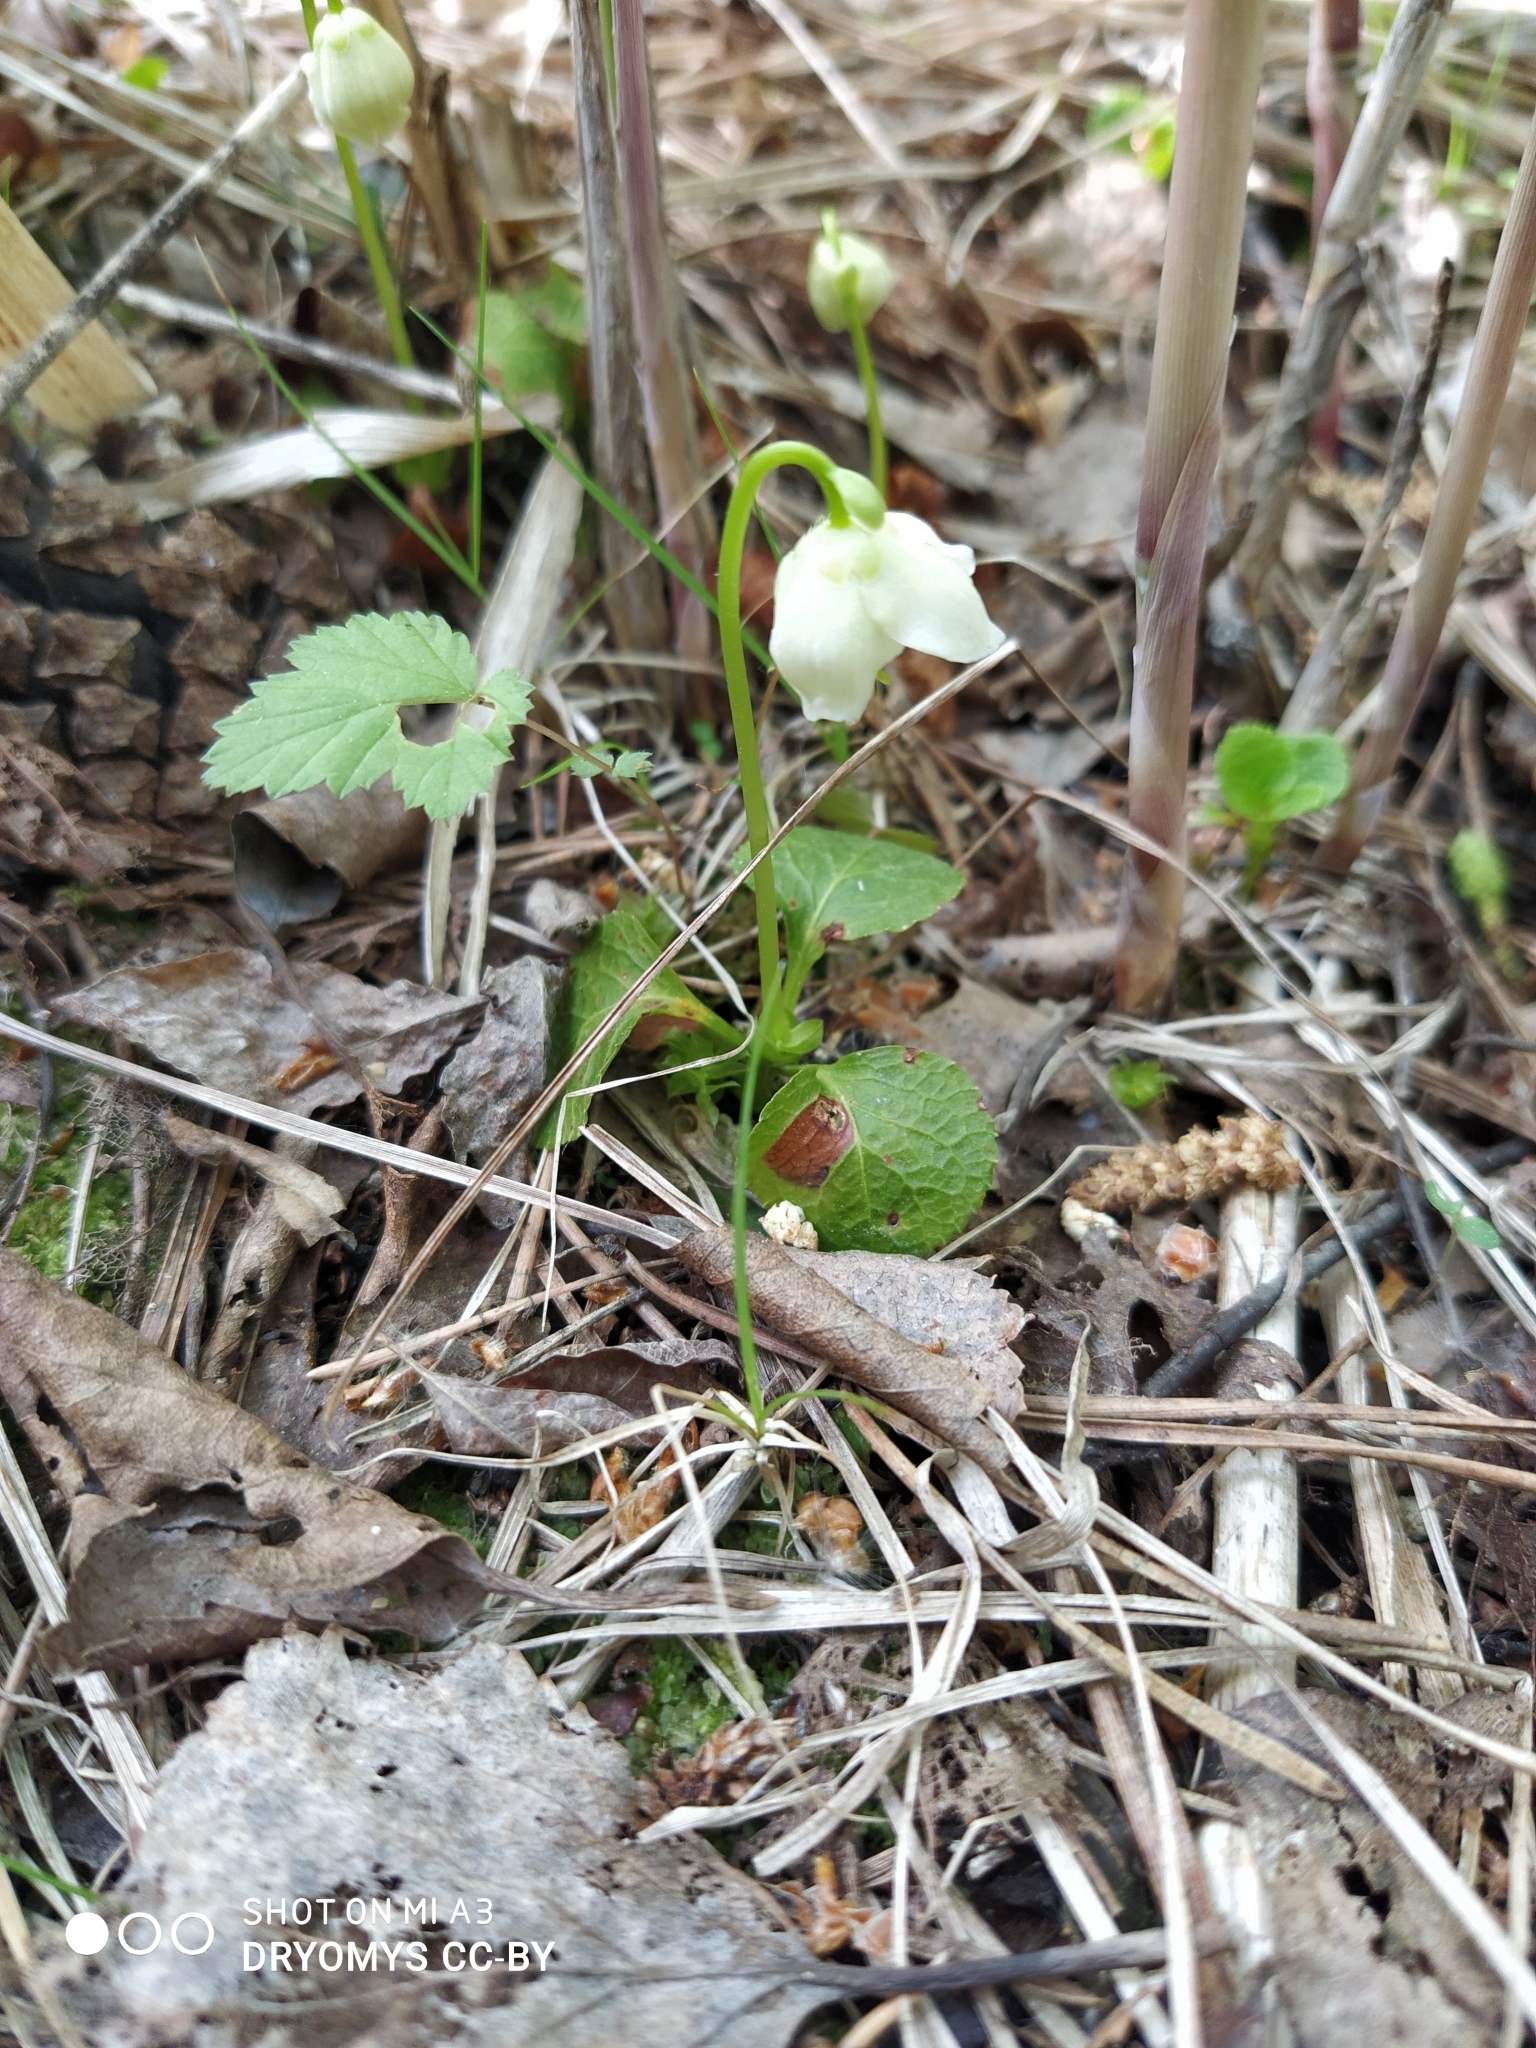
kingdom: Plantae
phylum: Tracheophyta
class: Magnoliopsida
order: Ericales
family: Ericaceae
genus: Moneses
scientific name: Moneses uniflora
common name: One-flowered wintergreen
